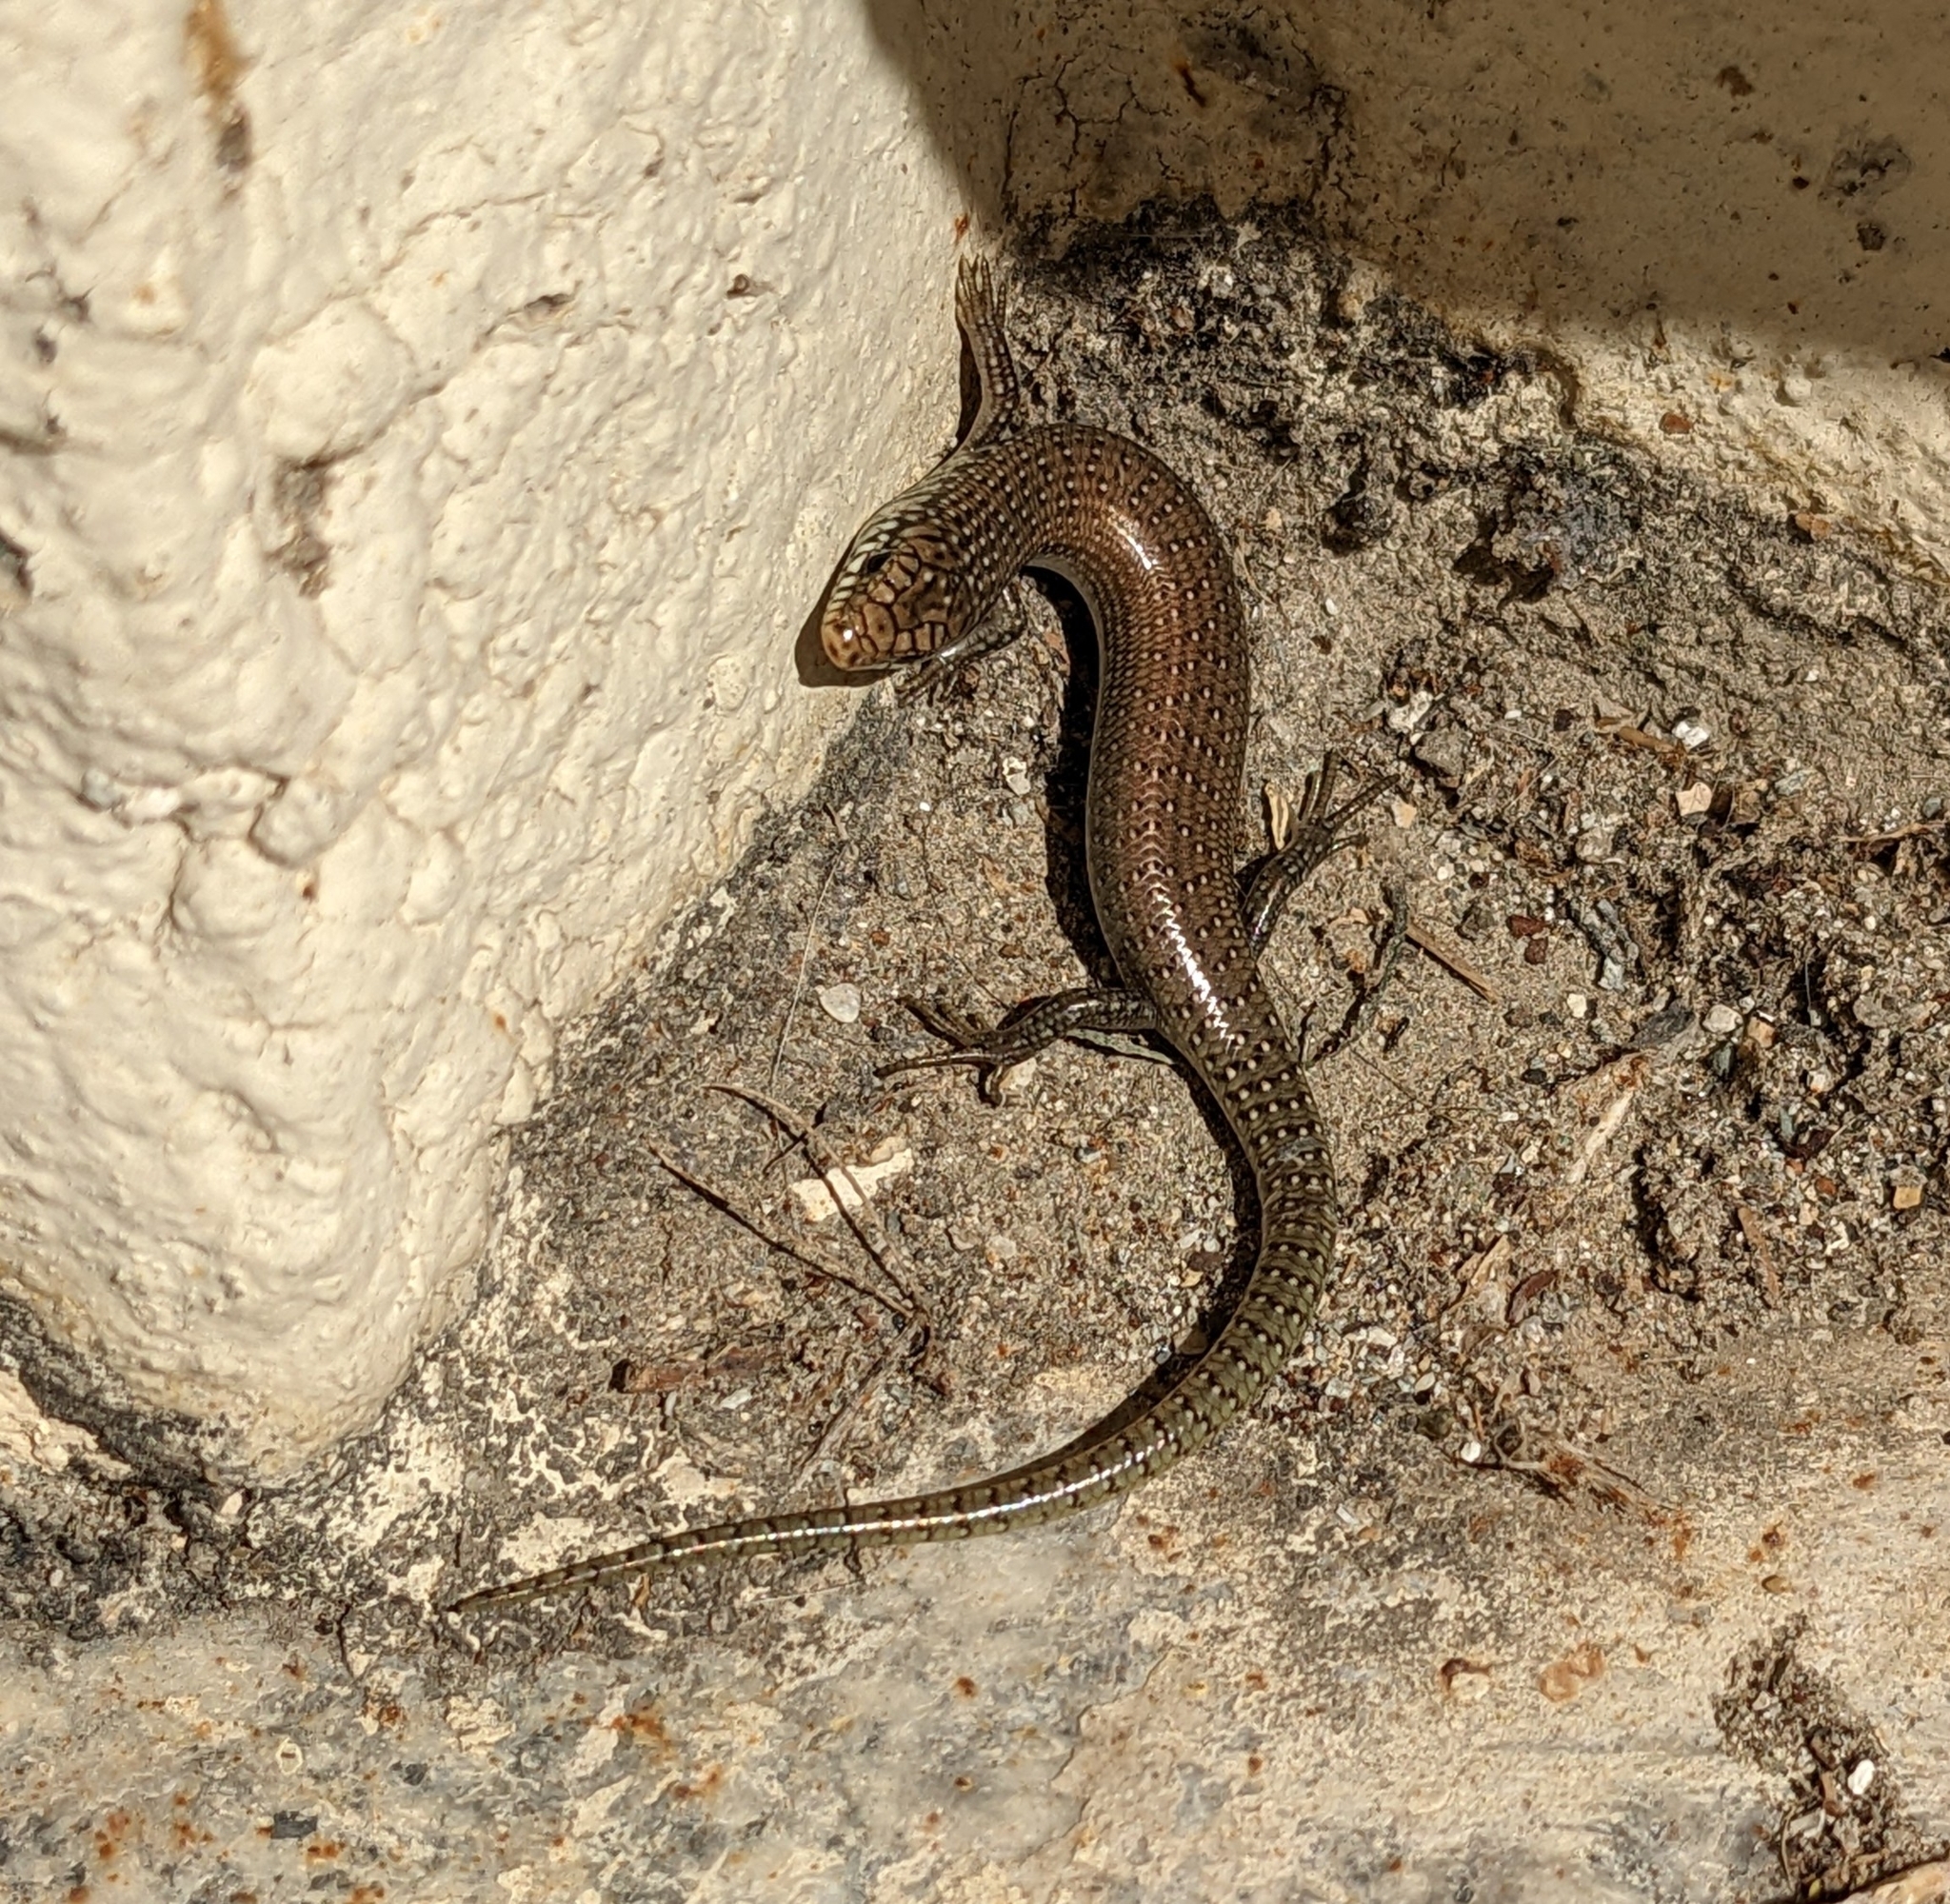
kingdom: Animalia
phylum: Chordata
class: Squamata
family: Scincidae
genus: Chalcides
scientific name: Chalcides ocellatus
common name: Ocellated skink
